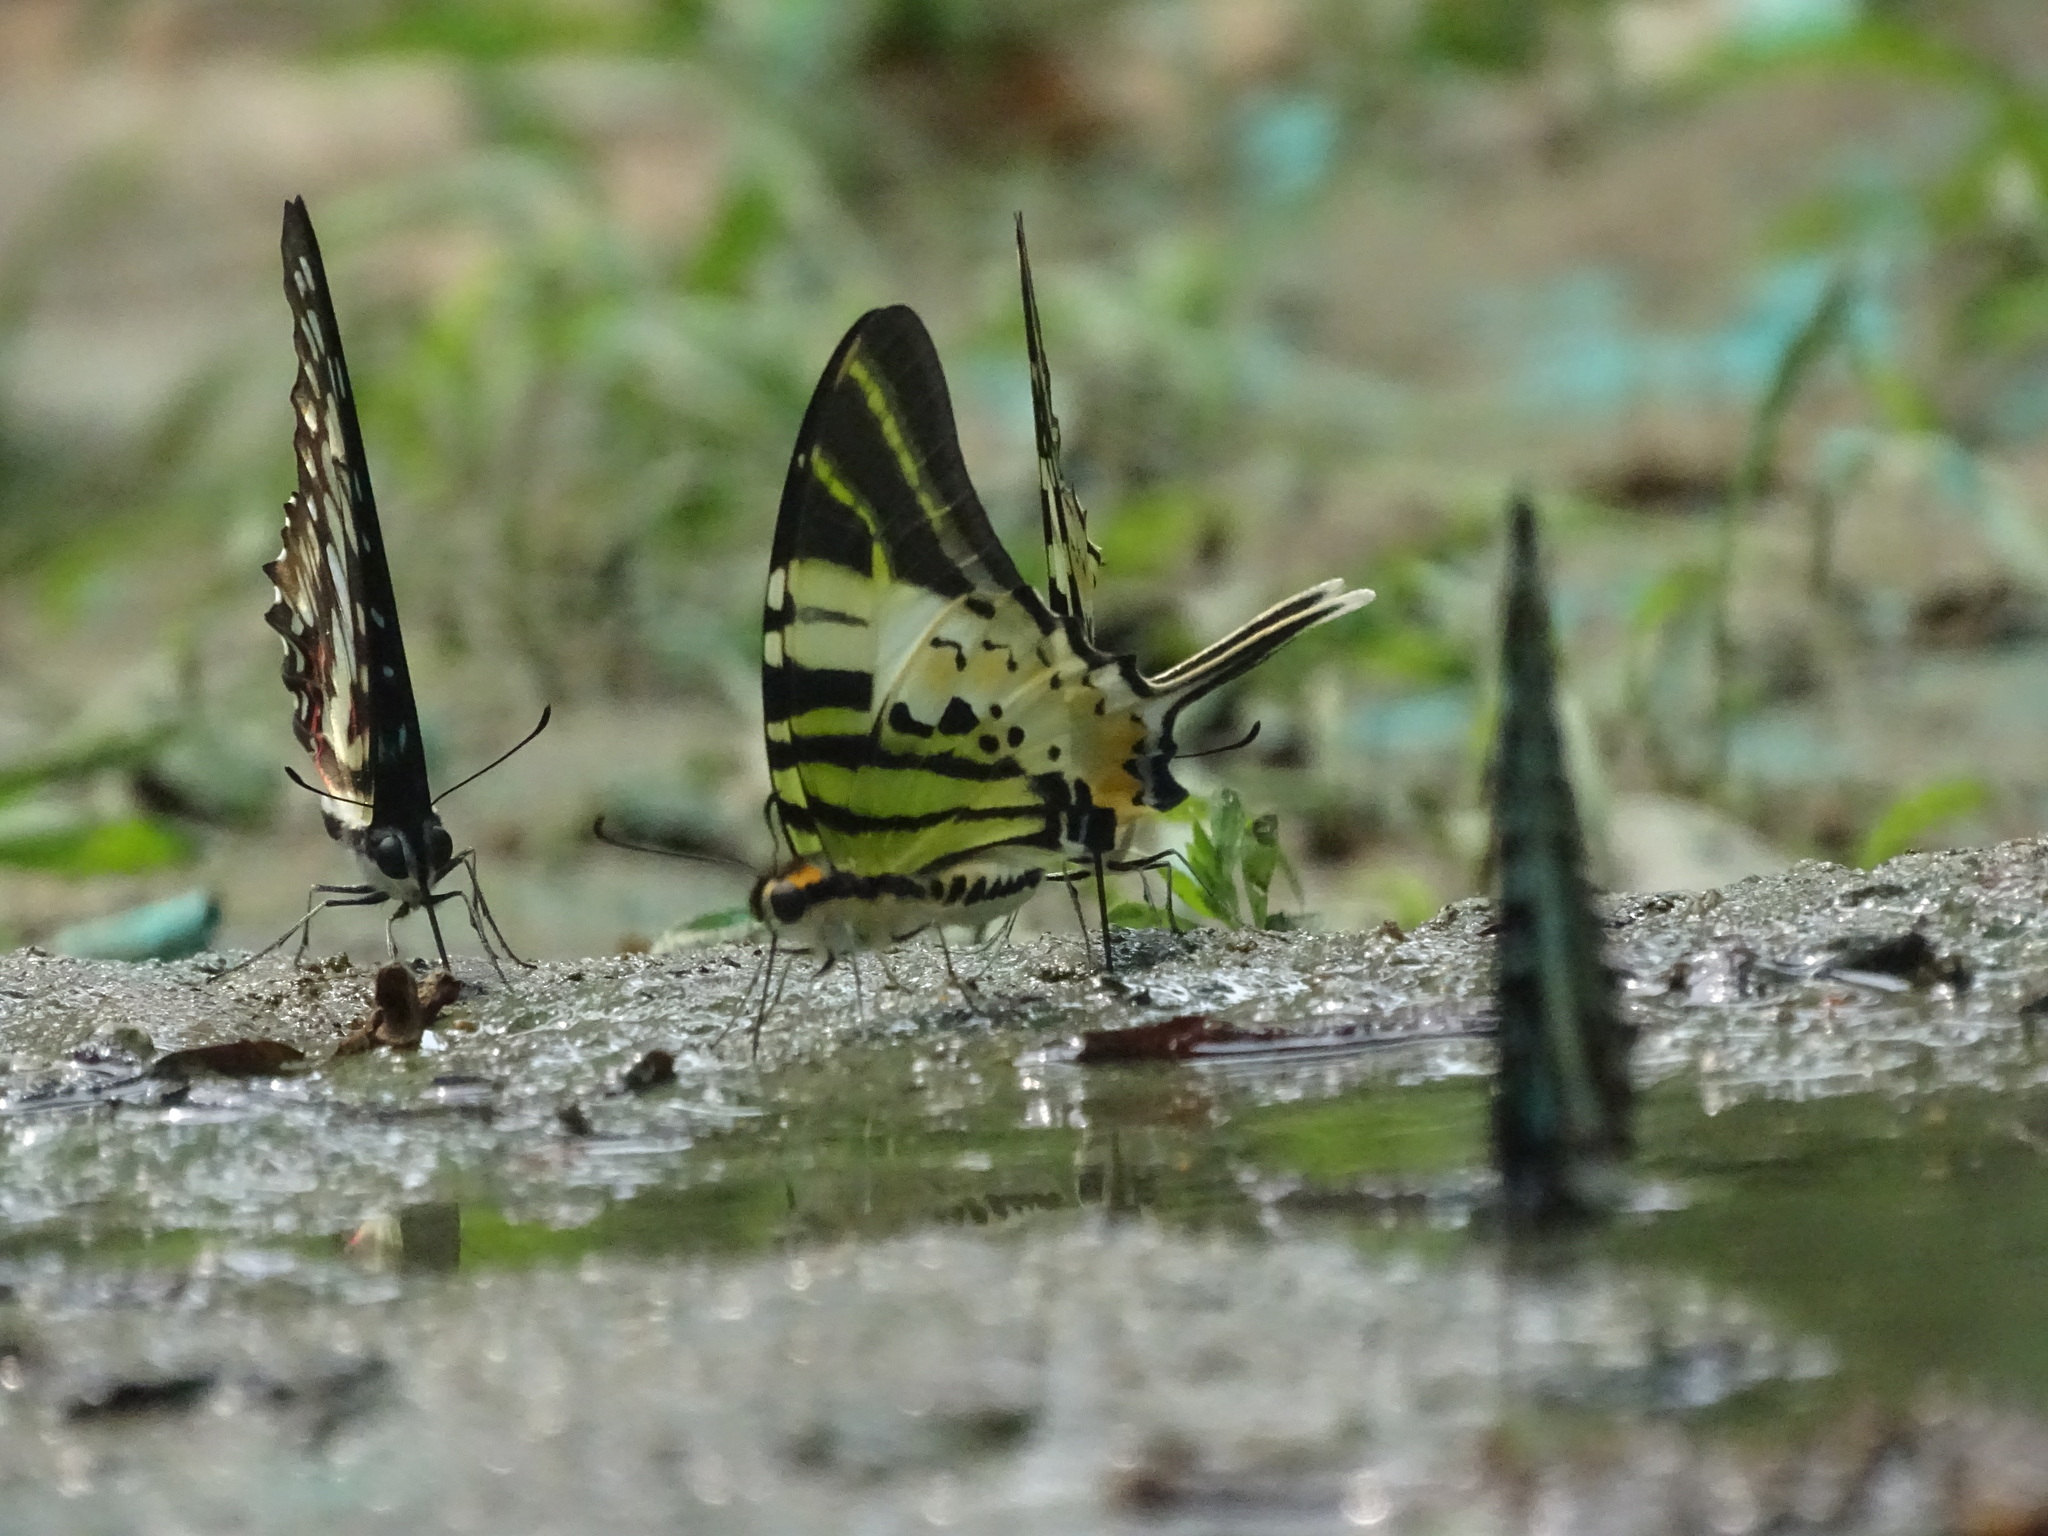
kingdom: Animalia
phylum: Arthropoda
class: Insecta
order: Lepidoptera
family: Papilionidae
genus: Graphium
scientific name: Graphium antiphates
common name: Fivebar swordtail
